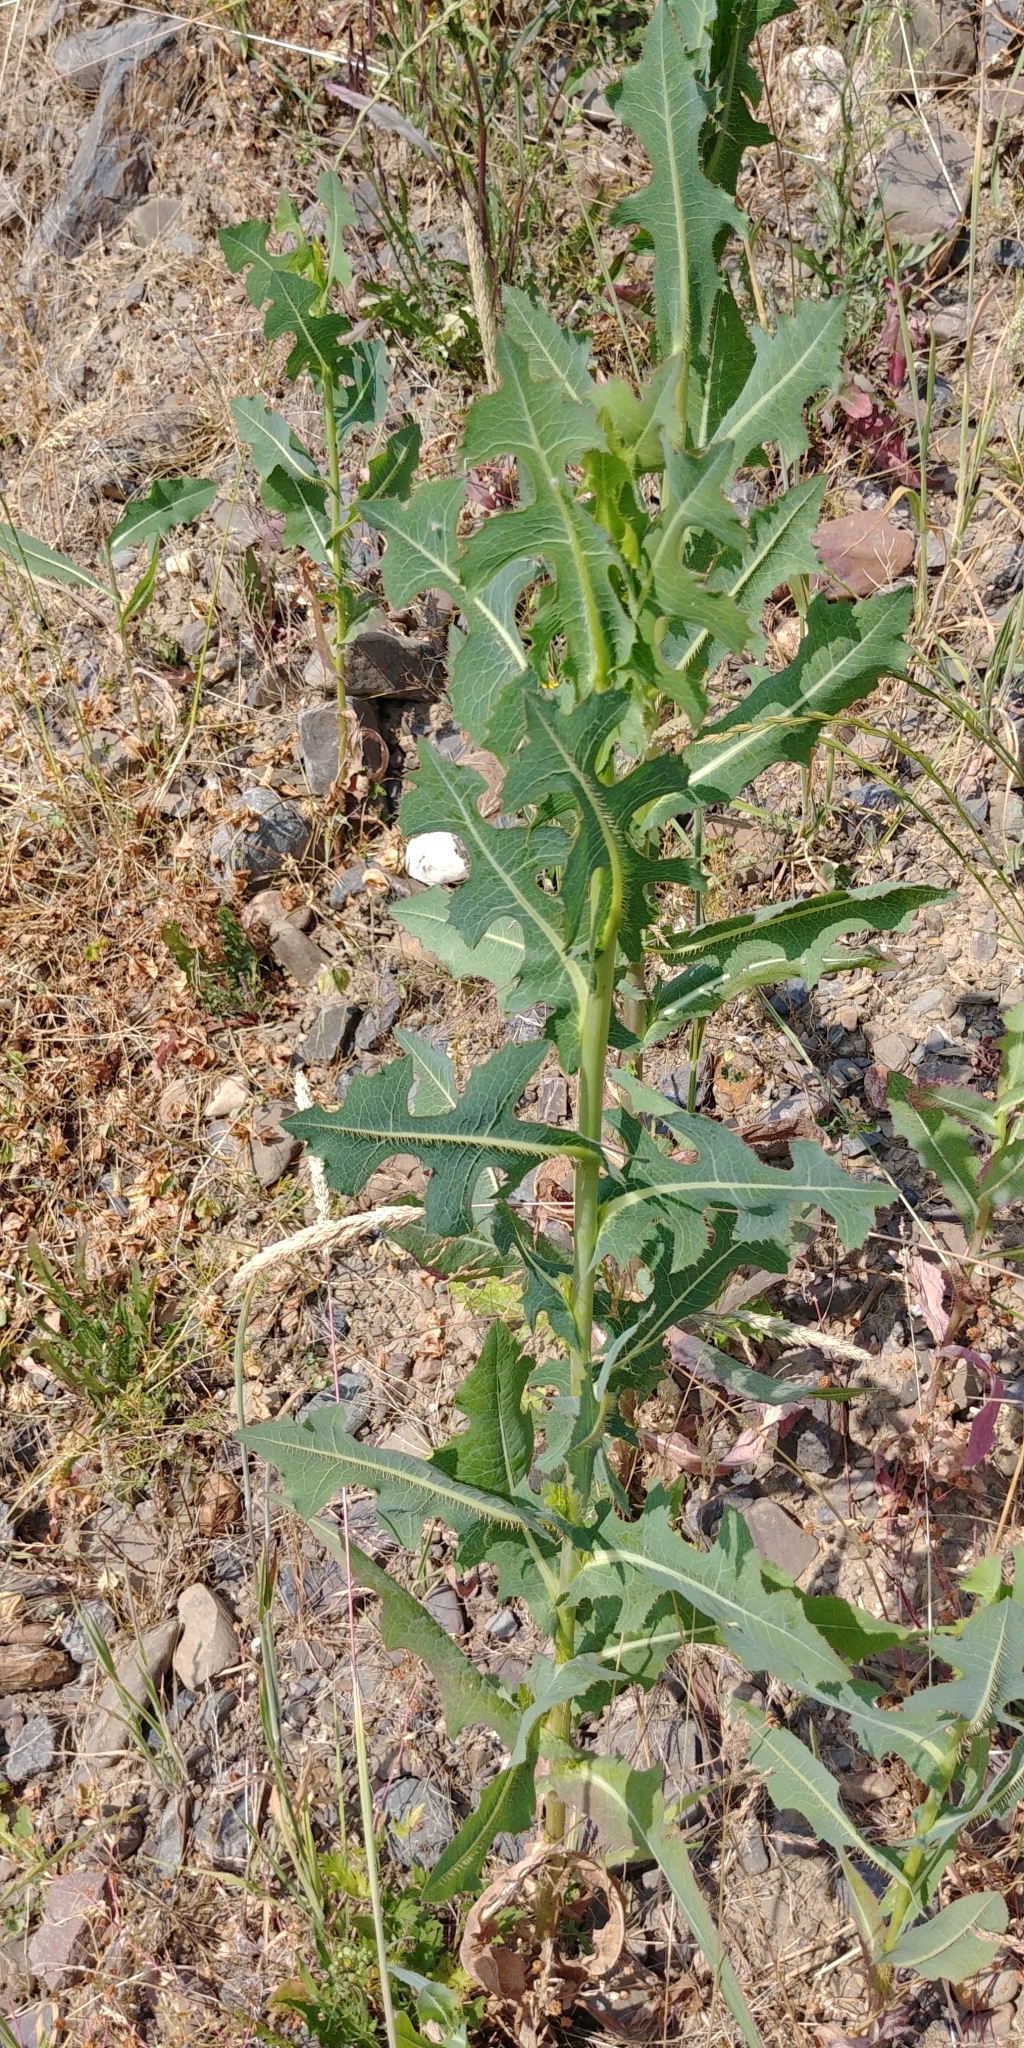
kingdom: Plantae
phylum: Tracheophyta
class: Magnoliopsida
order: Asterales
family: Asteraceae
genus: Lactuca
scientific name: Lactuca serriola
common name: Prickly lettuce
